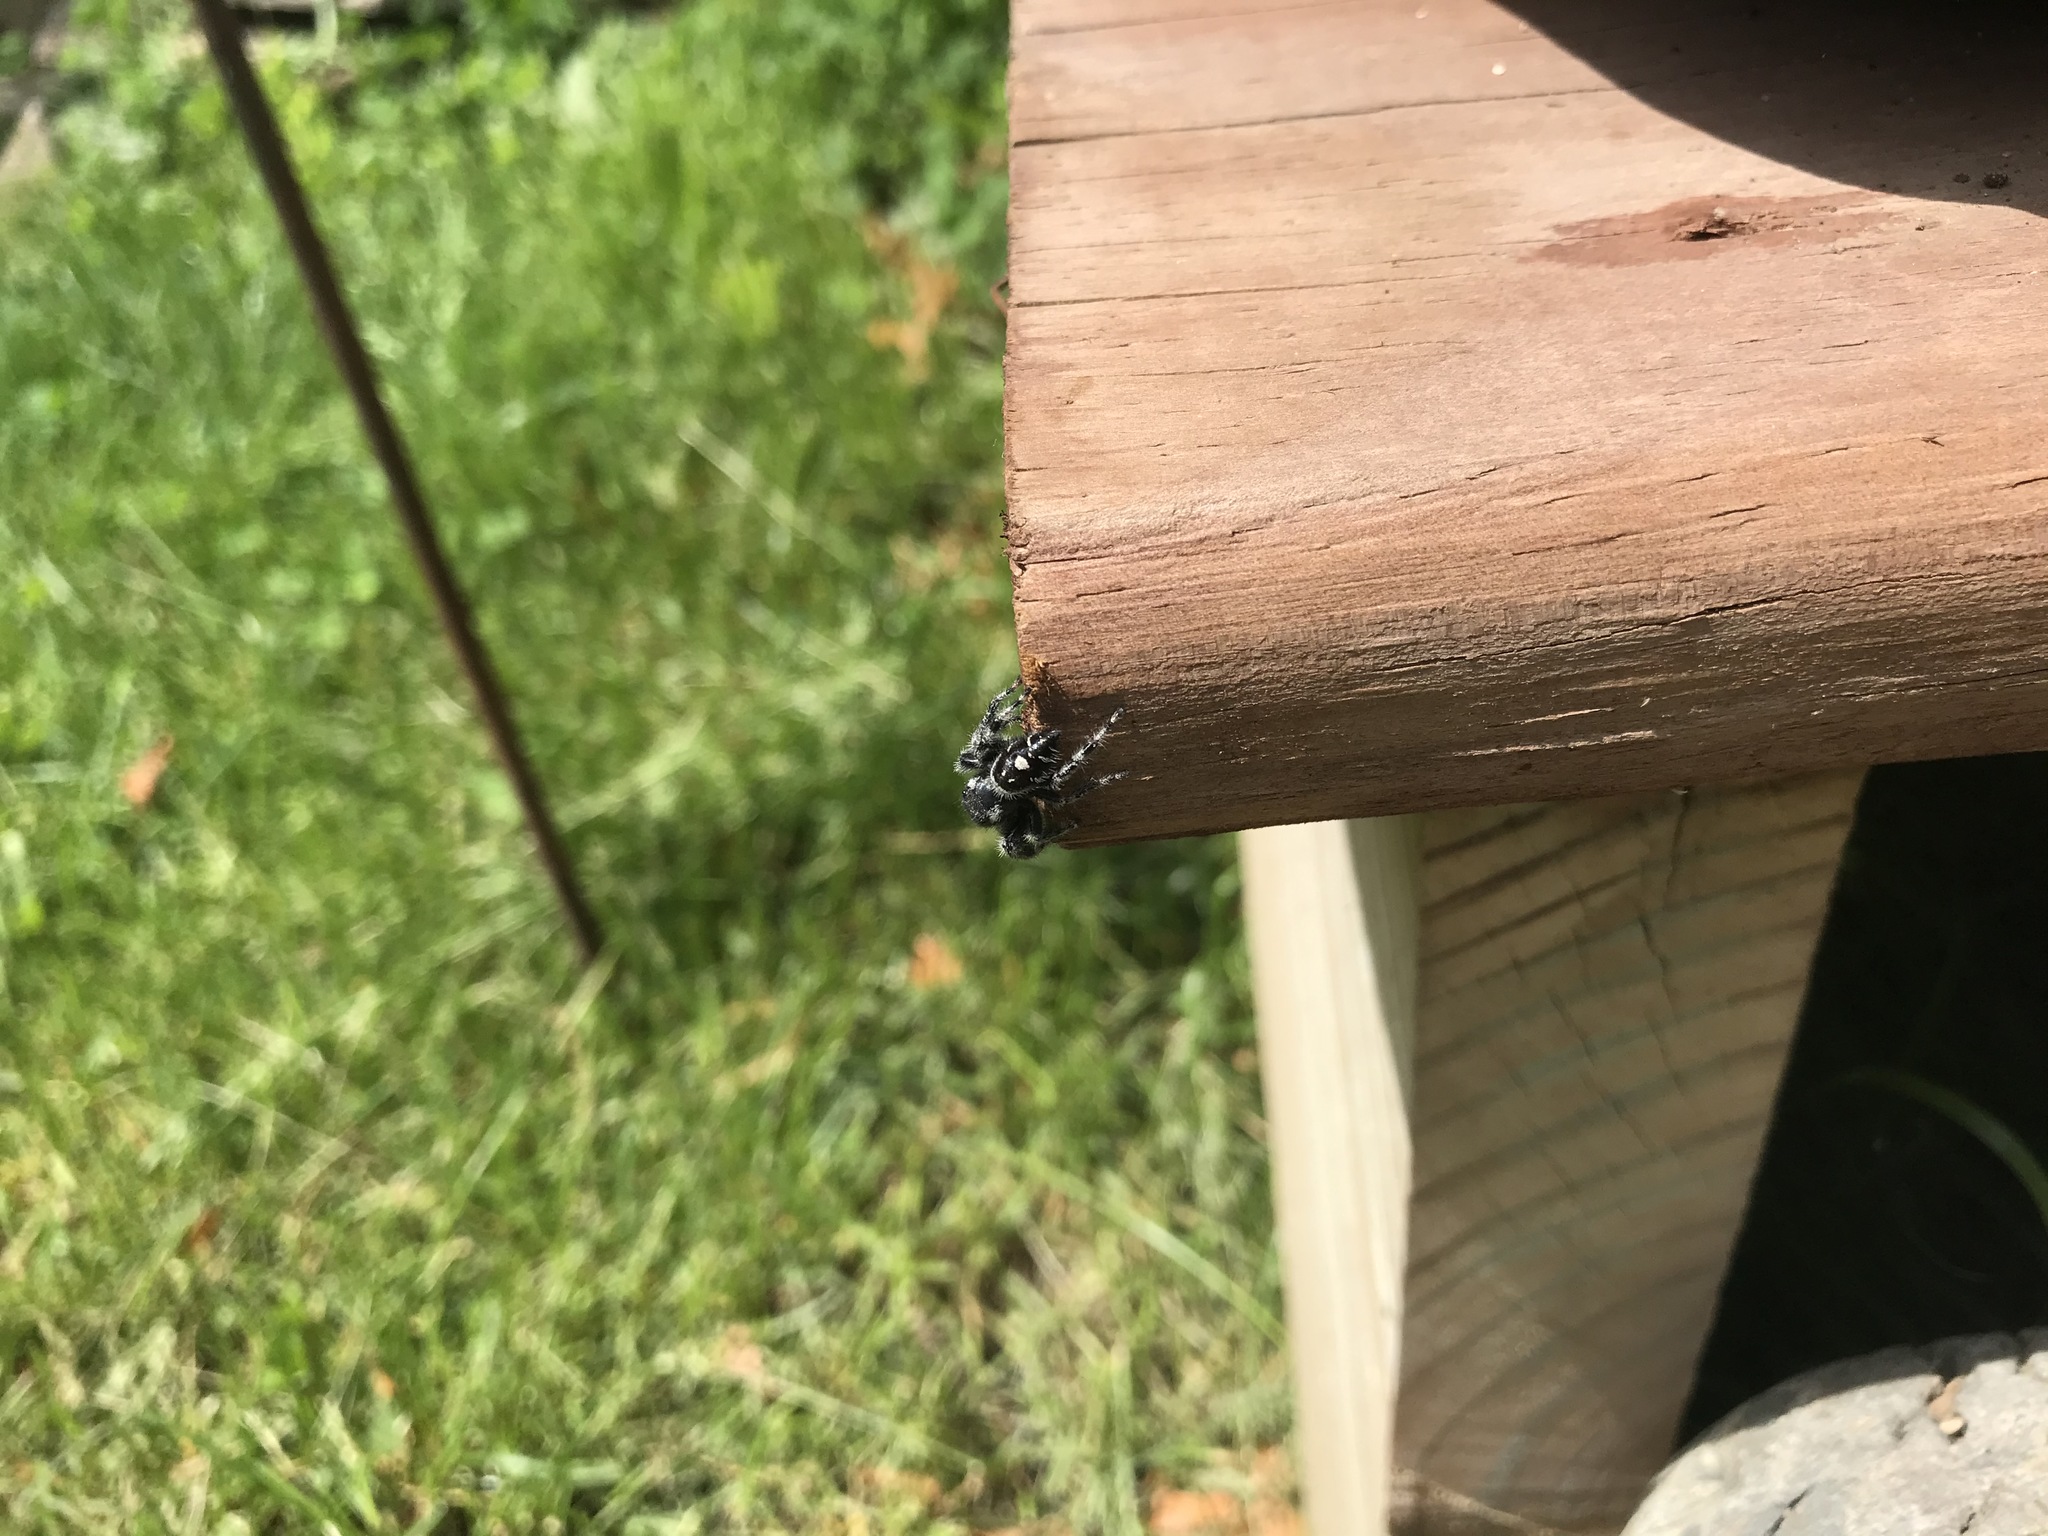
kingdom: Animalia
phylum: Arthropoda
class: Arachnida
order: Araneae
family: Salticidae
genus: Phidippus
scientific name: Phidippus audax
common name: Bold jumper
